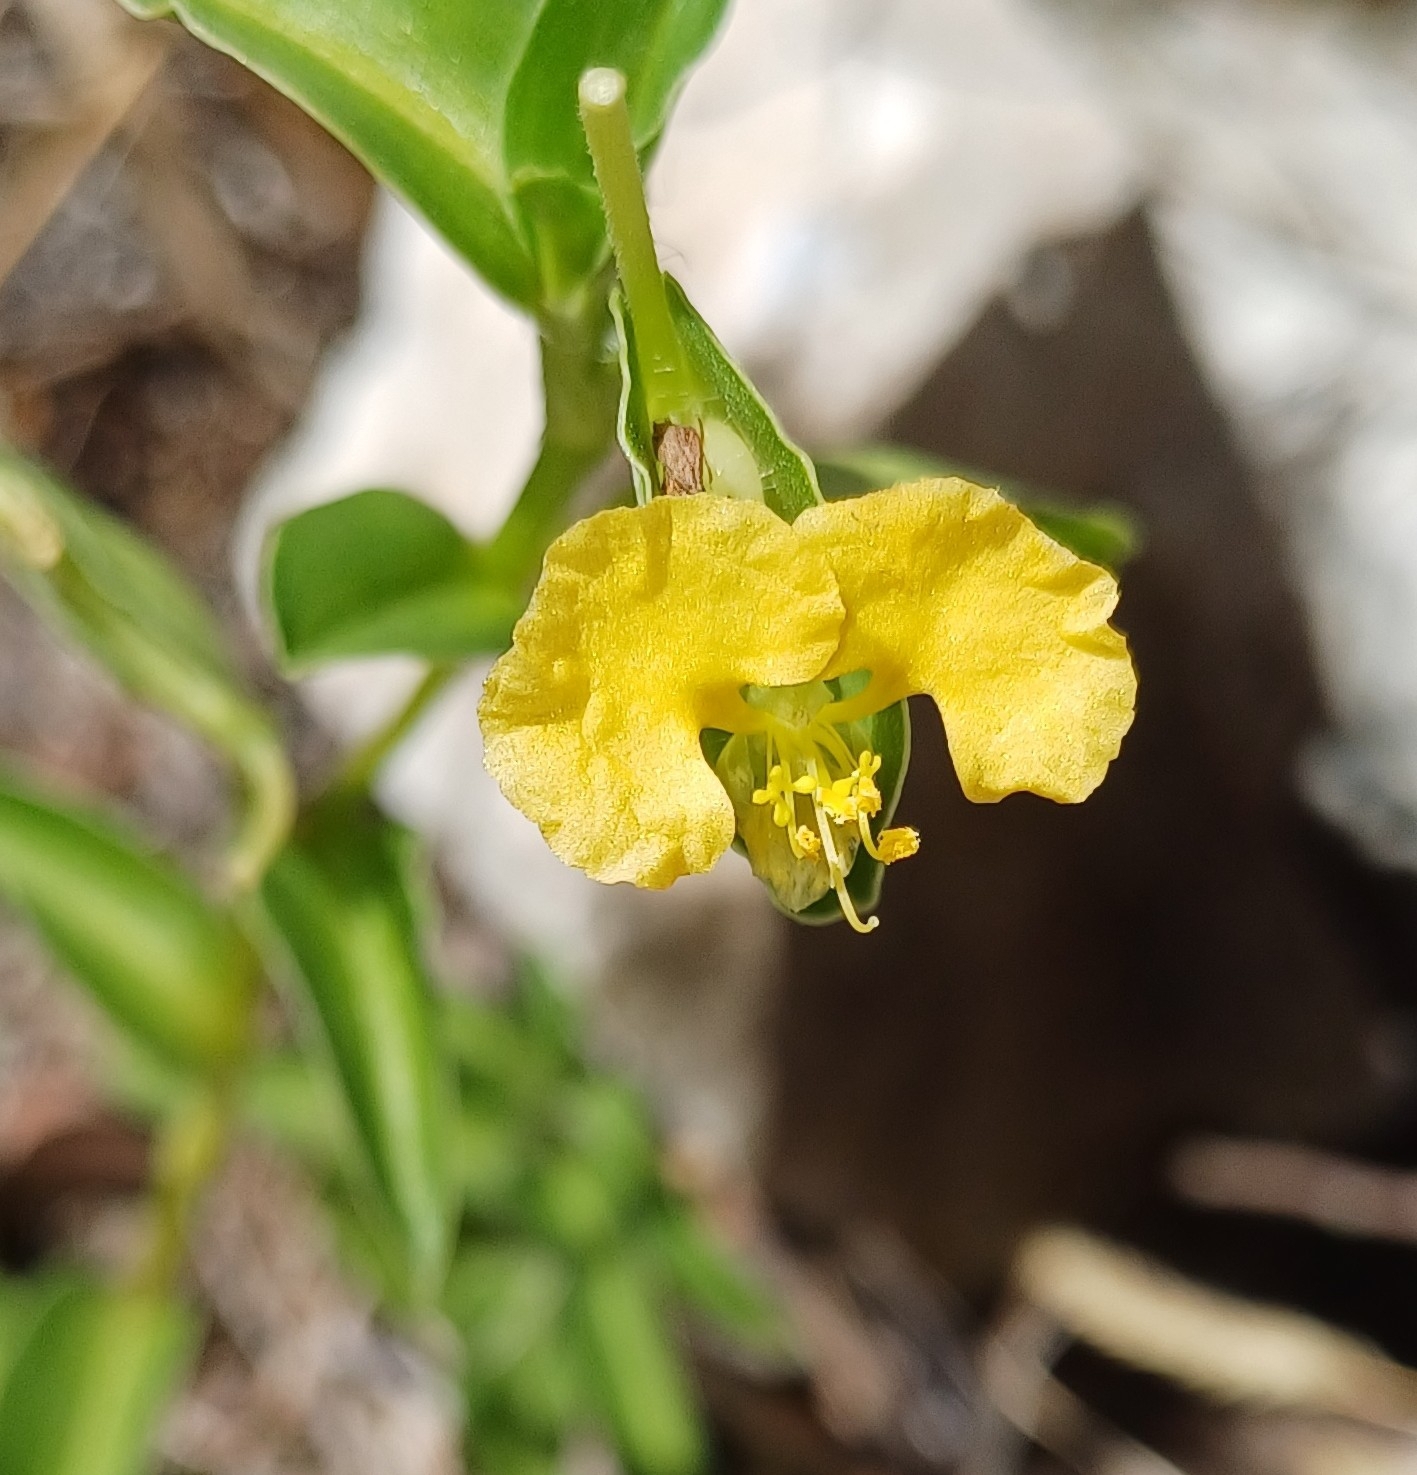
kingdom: Plantae
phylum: Tracheophyta
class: Liliopsida
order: Commelinales
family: Commelinaceae
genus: Commelina
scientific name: Commelina africana
